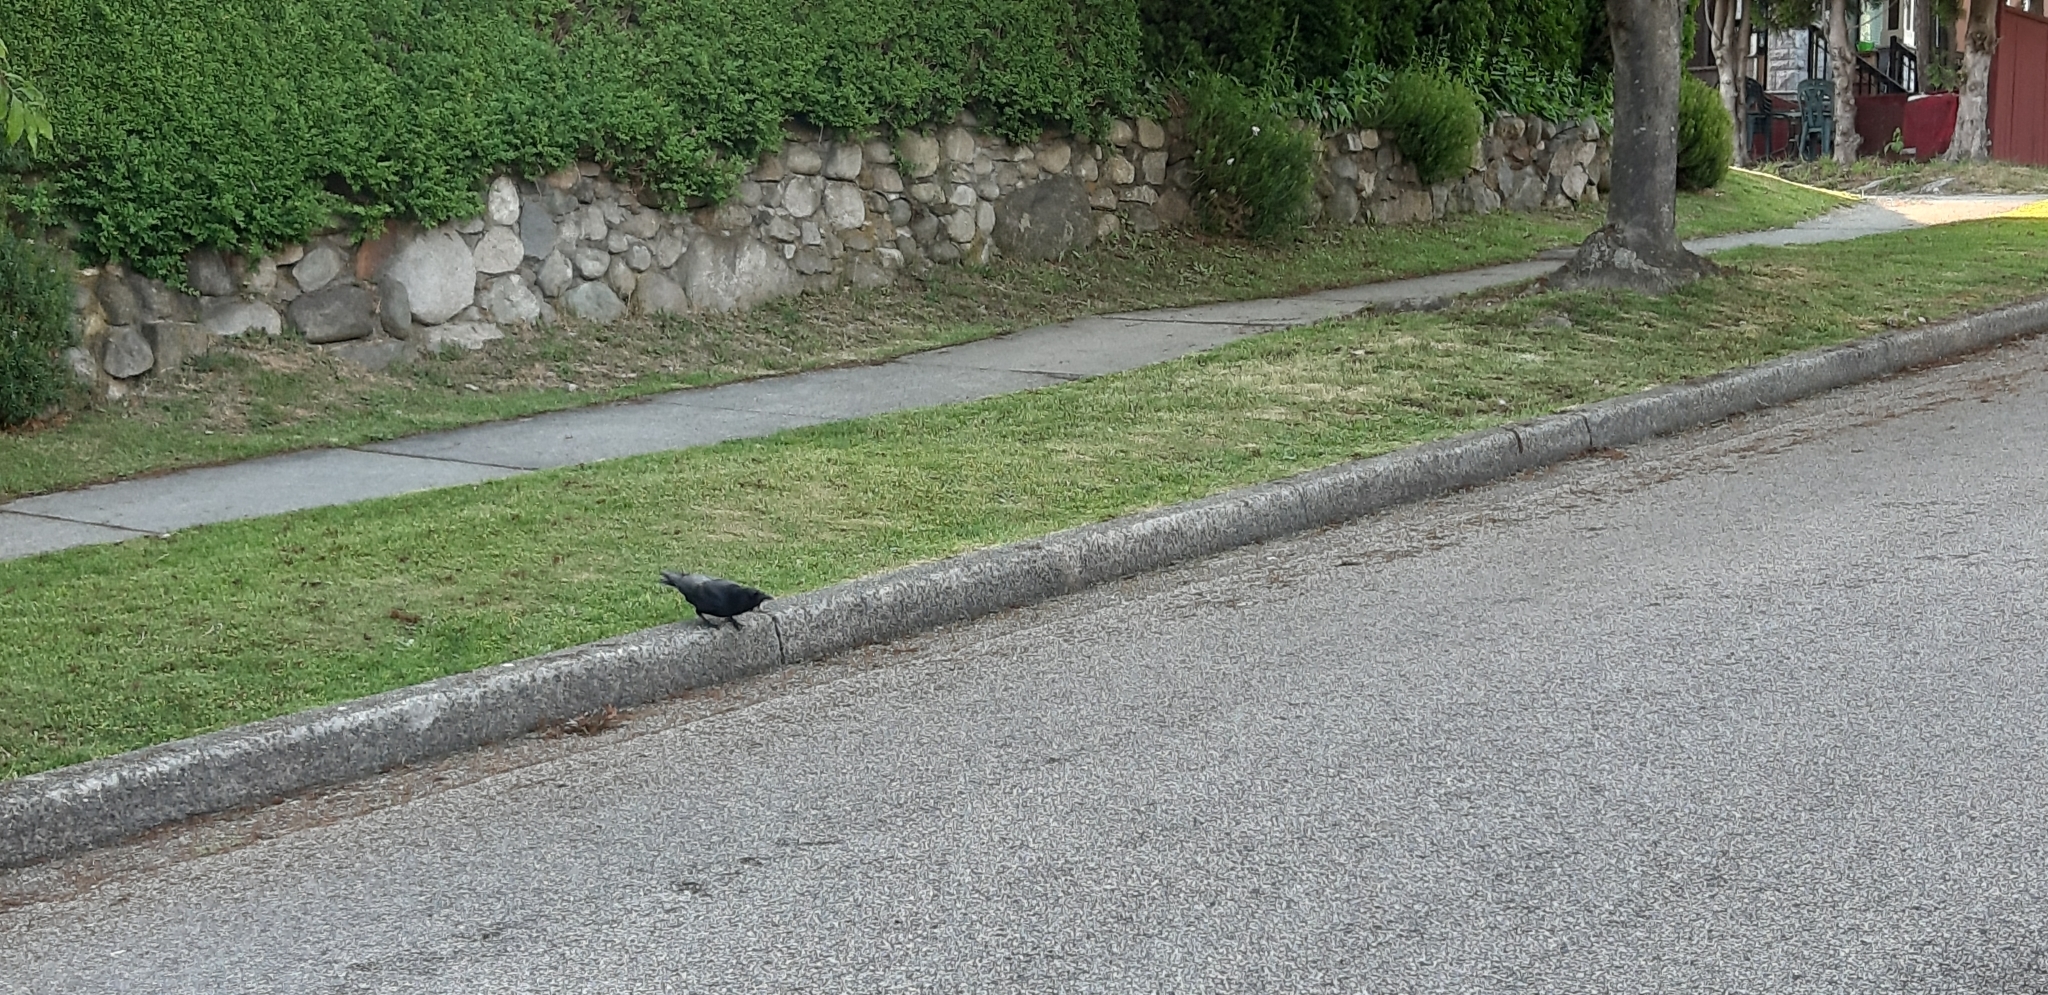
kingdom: Animalia
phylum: Chordata
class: Aves
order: Passeriformes
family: Corvidae
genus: Corvus
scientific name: Corvus brachyrhynchos
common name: American crow
